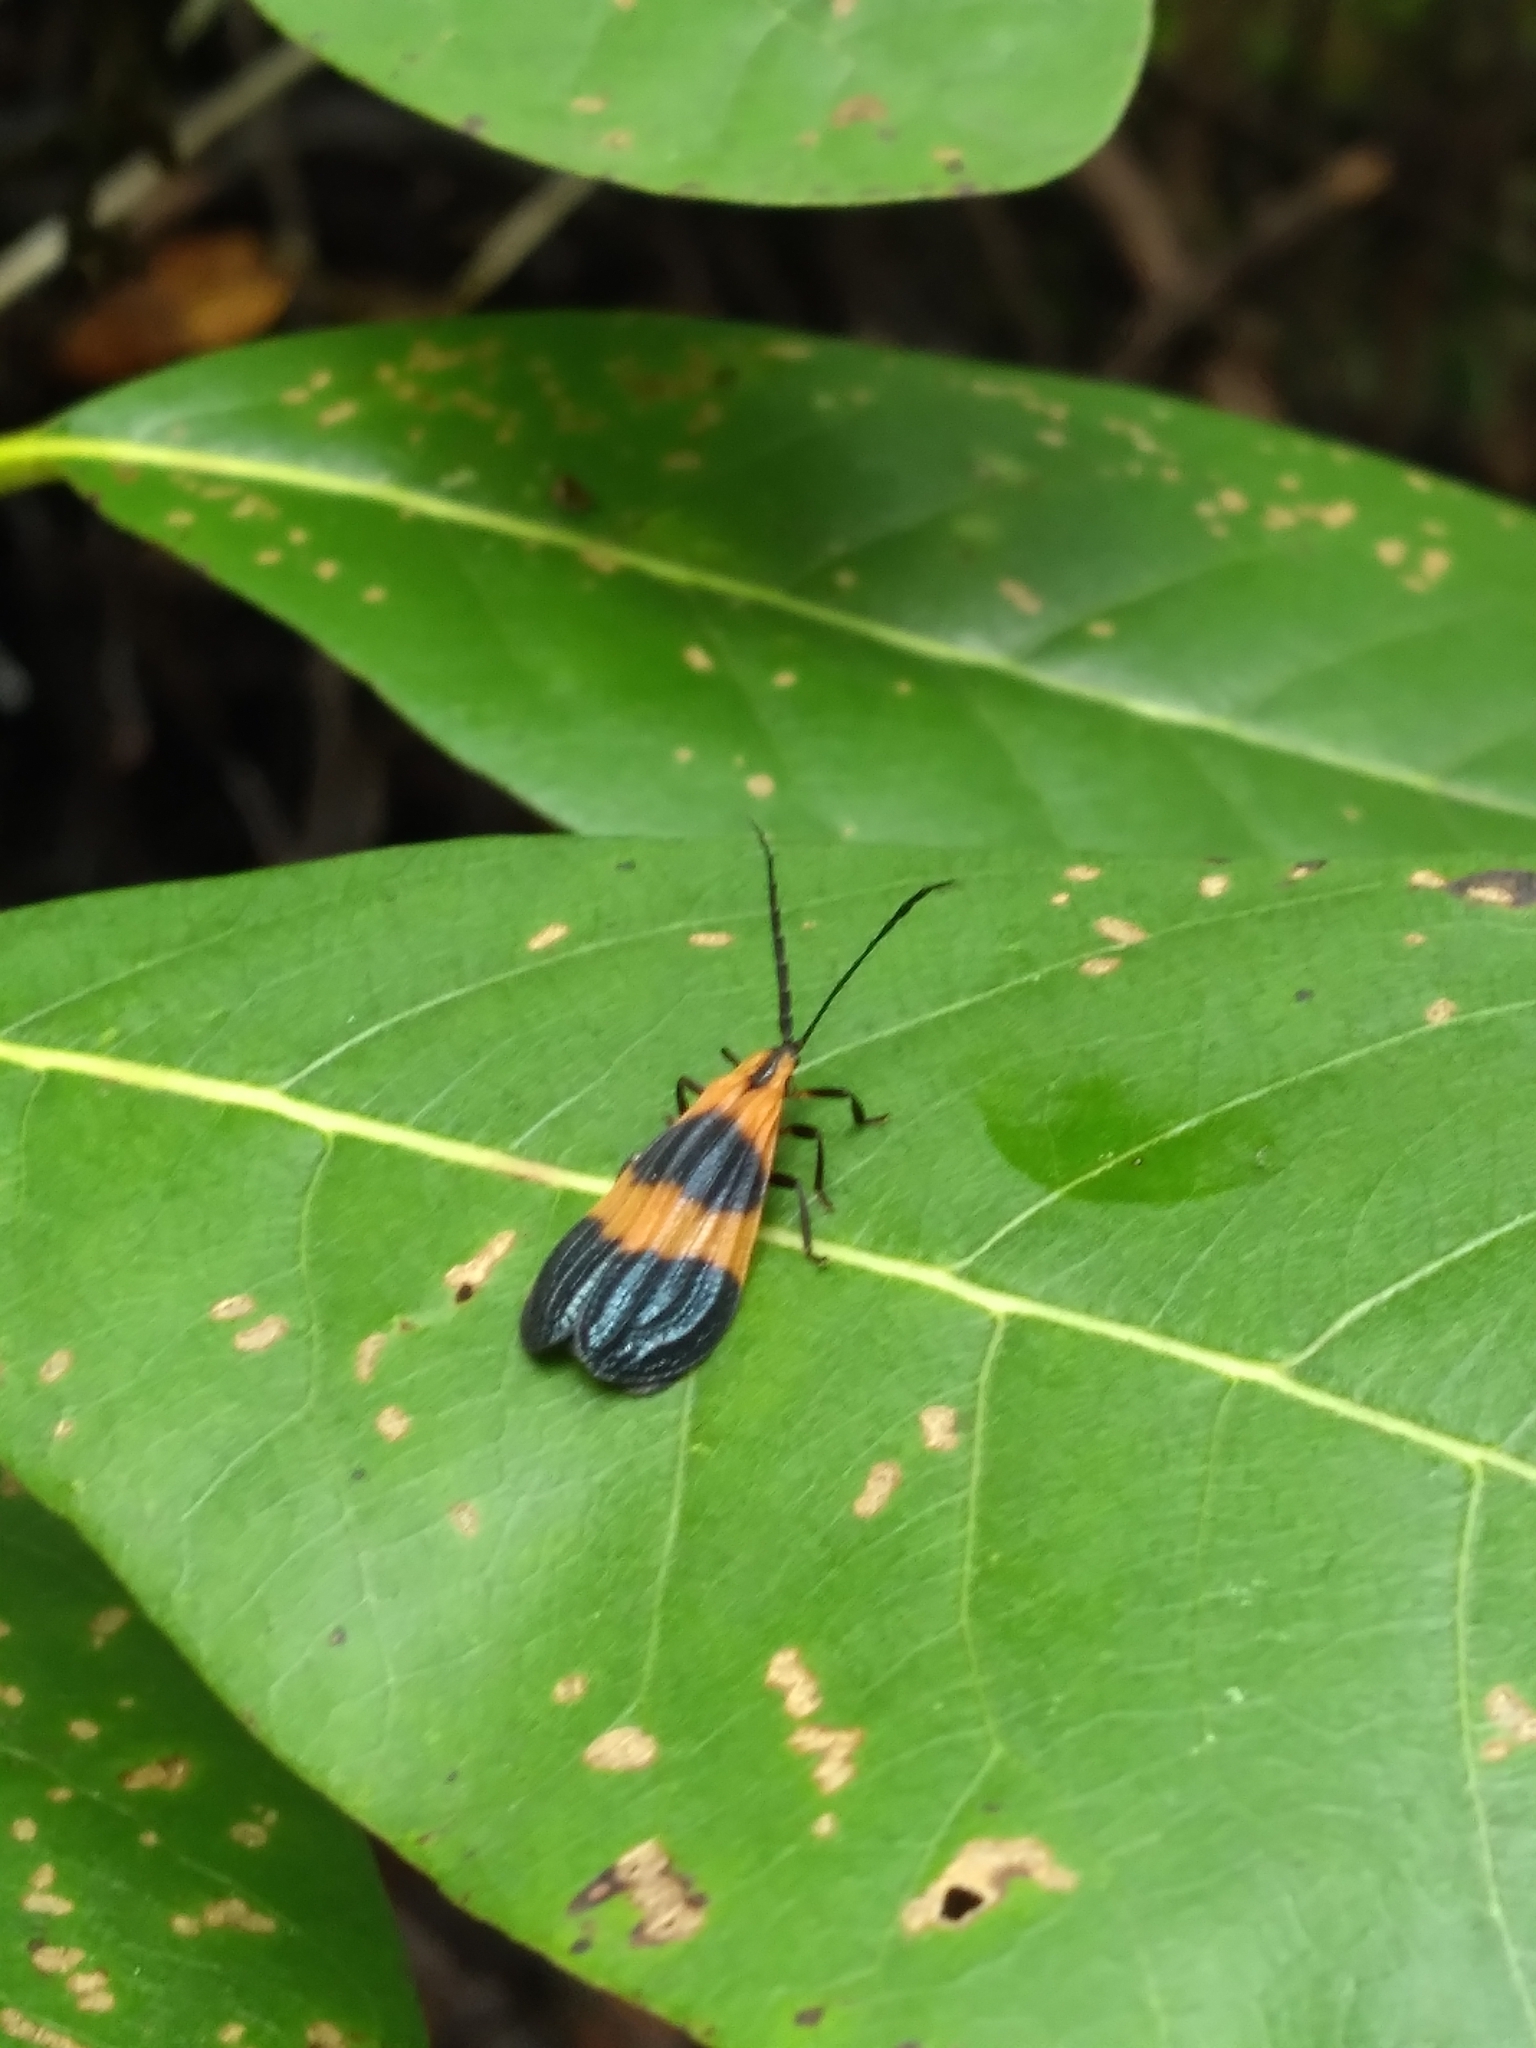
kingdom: Animalia
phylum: Arthropoda
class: Insecta
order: Coleoptera
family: Lycidae
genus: Calopteron
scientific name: Calopteron terminale
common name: End band net-winged beetle
